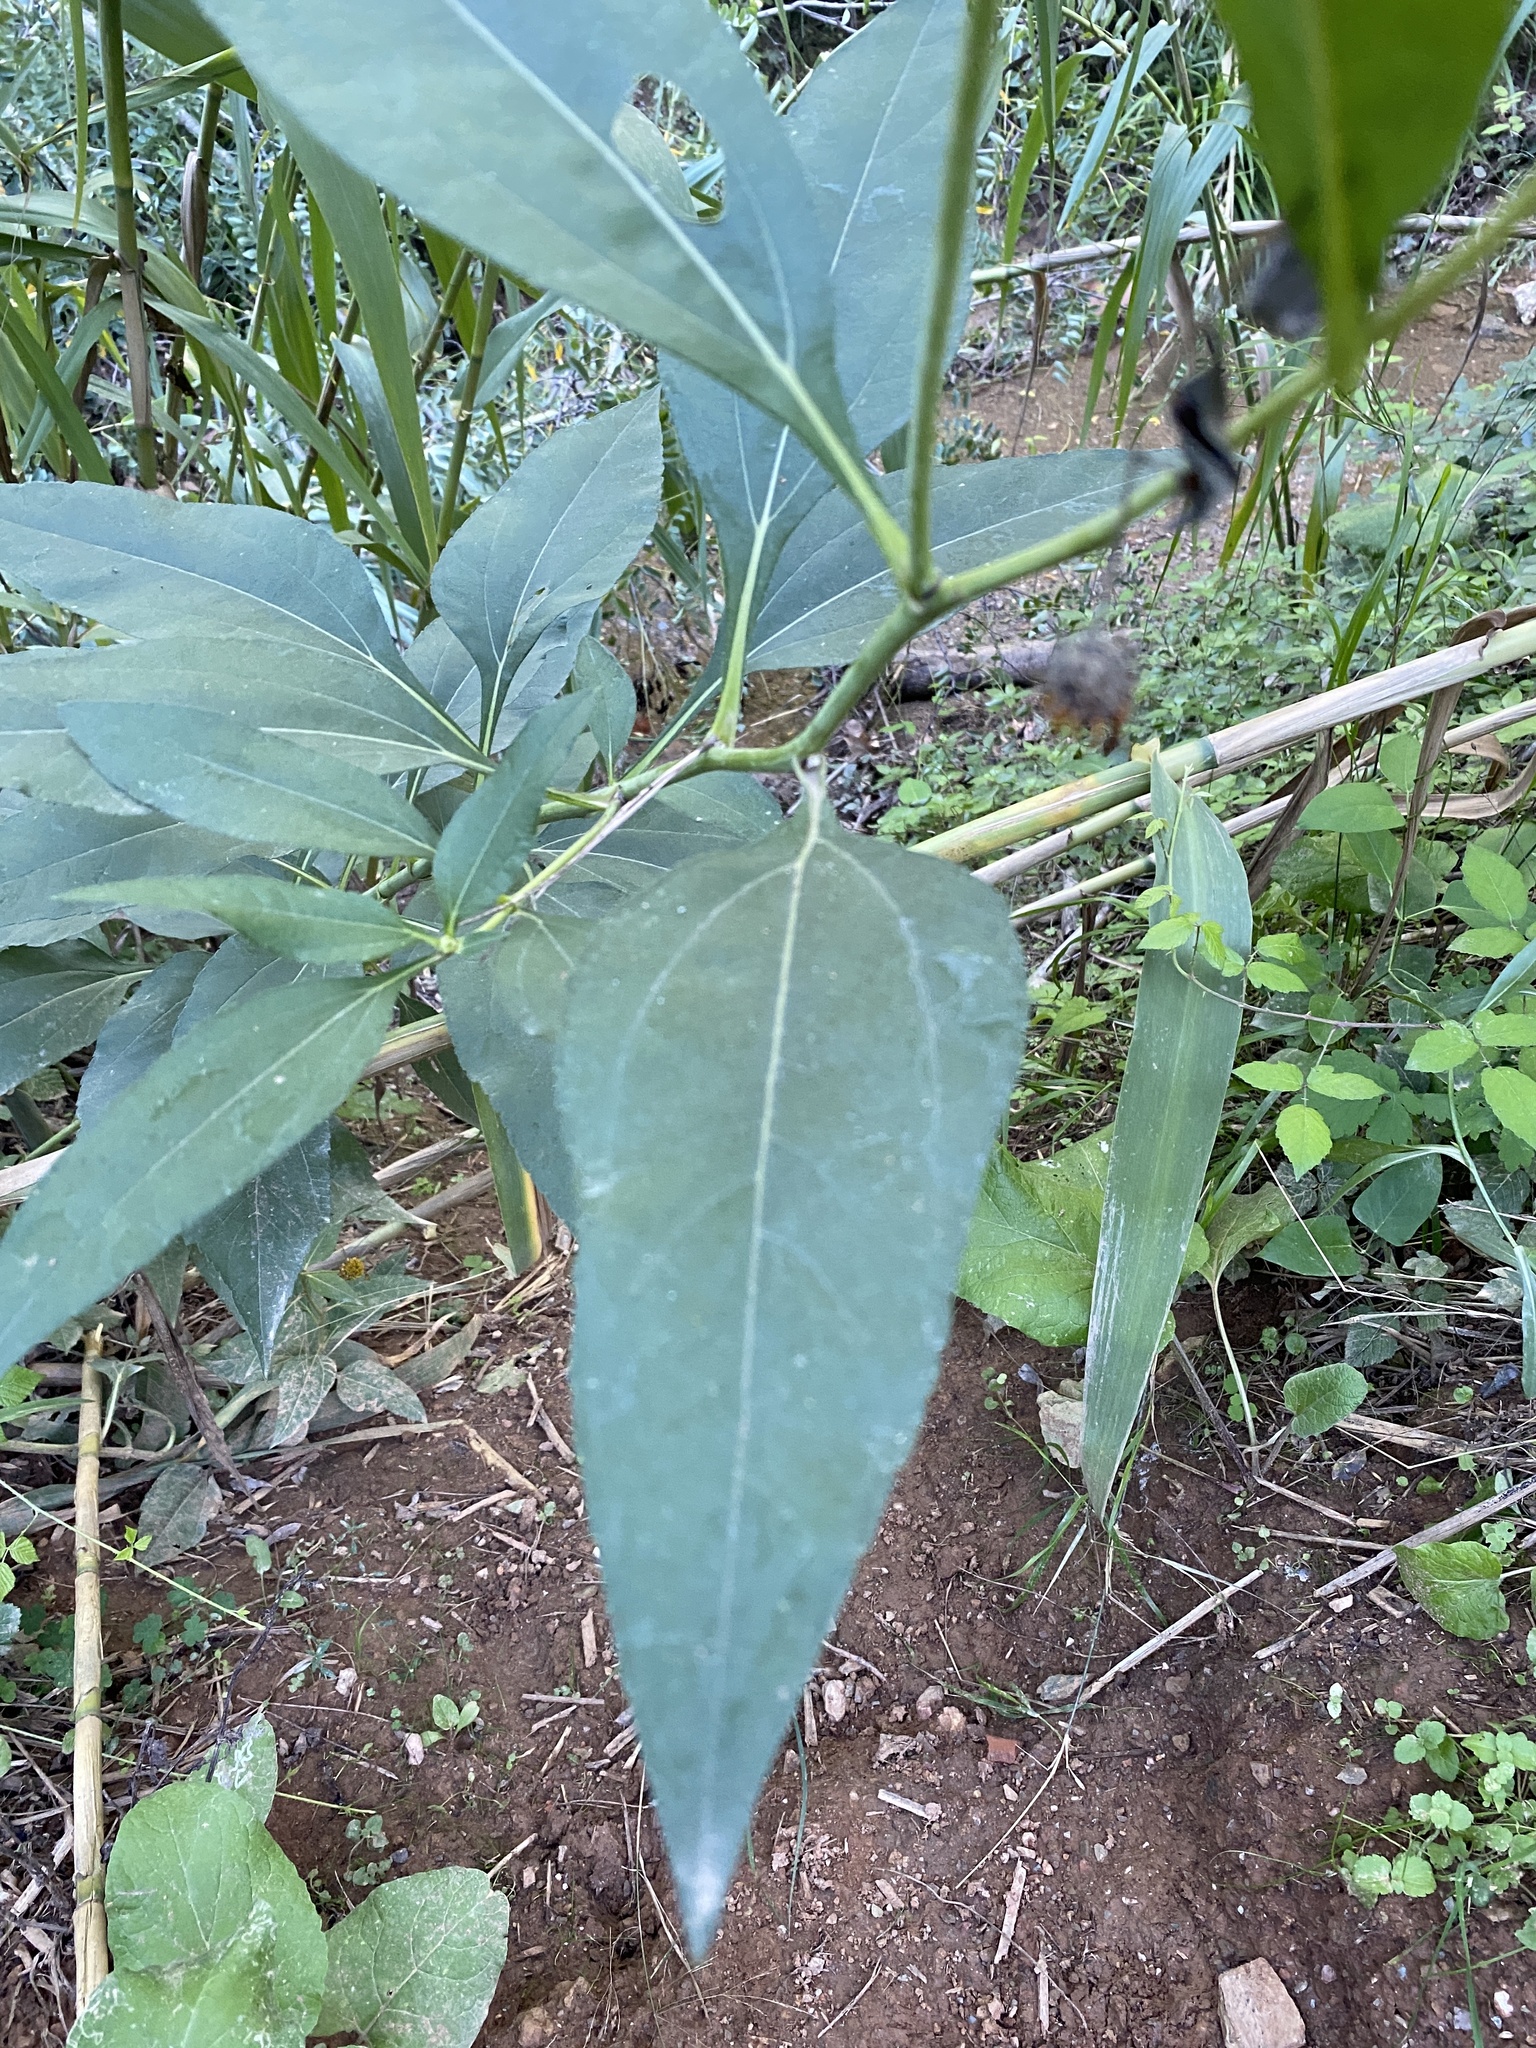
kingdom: Plantae
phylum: Tracheophyta
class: Magnoliopsida
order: Asterales
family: Asteraceae
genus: Helianthus
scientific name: Helianthus tuberosus
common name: Jerusalem artichoke
